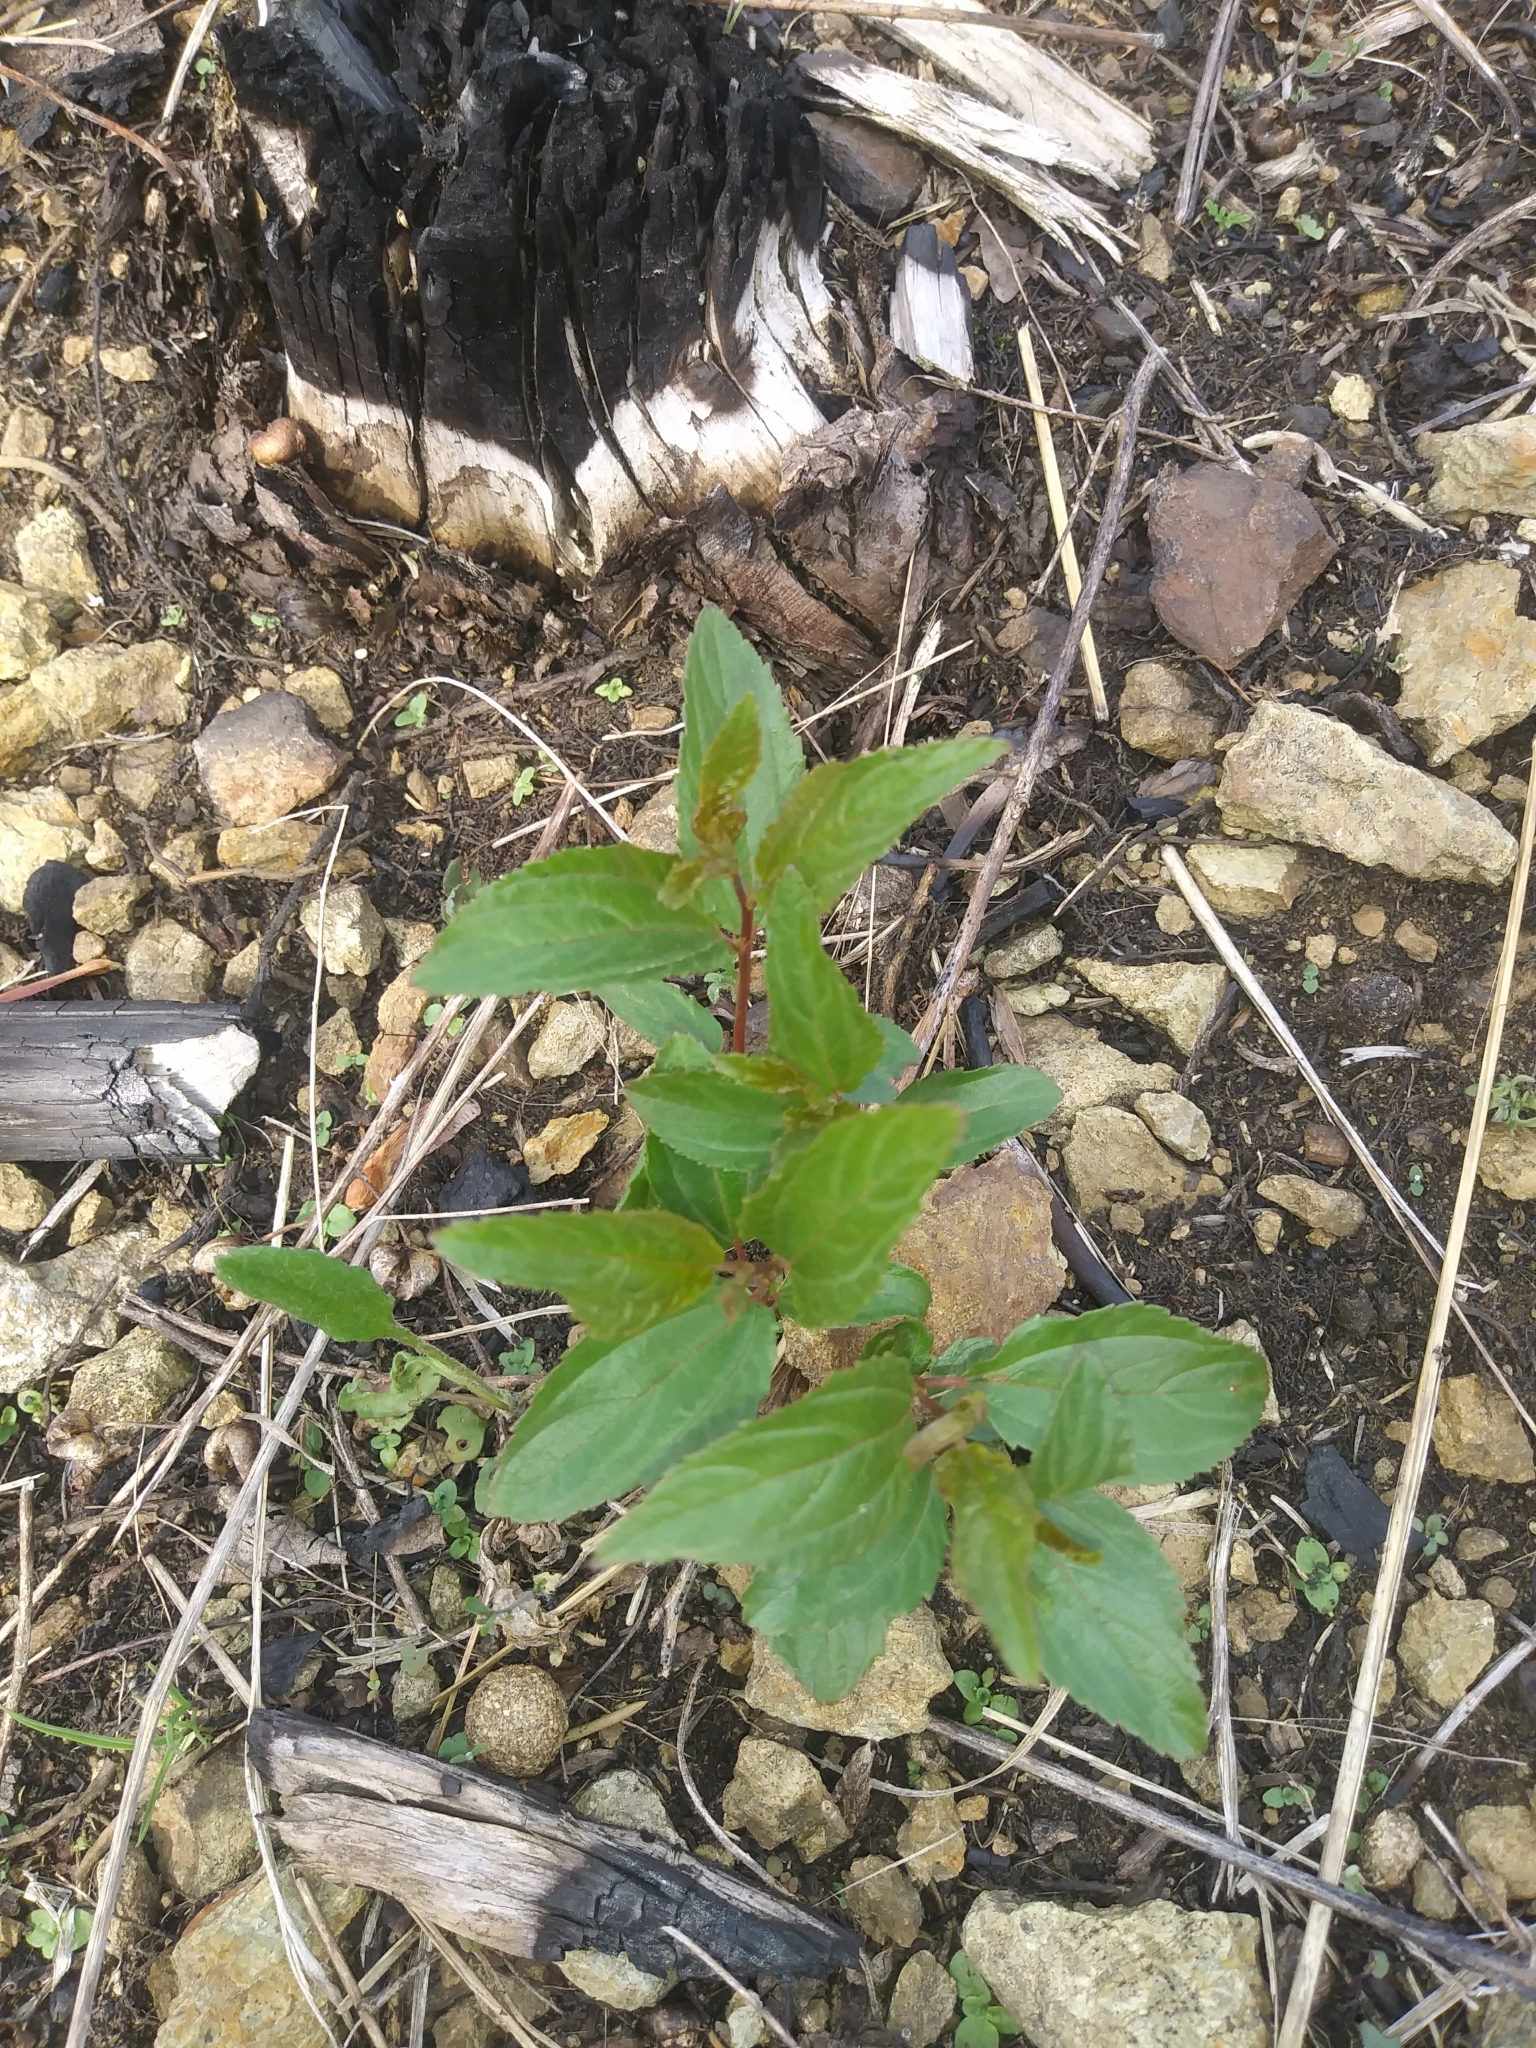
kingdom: Plantae
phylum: Tracheophyta
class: Magnoliopsida
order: Rosales
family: Rhamnaceae
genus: Ceanothus
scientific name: Ceanothus americanus
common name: Redroot
